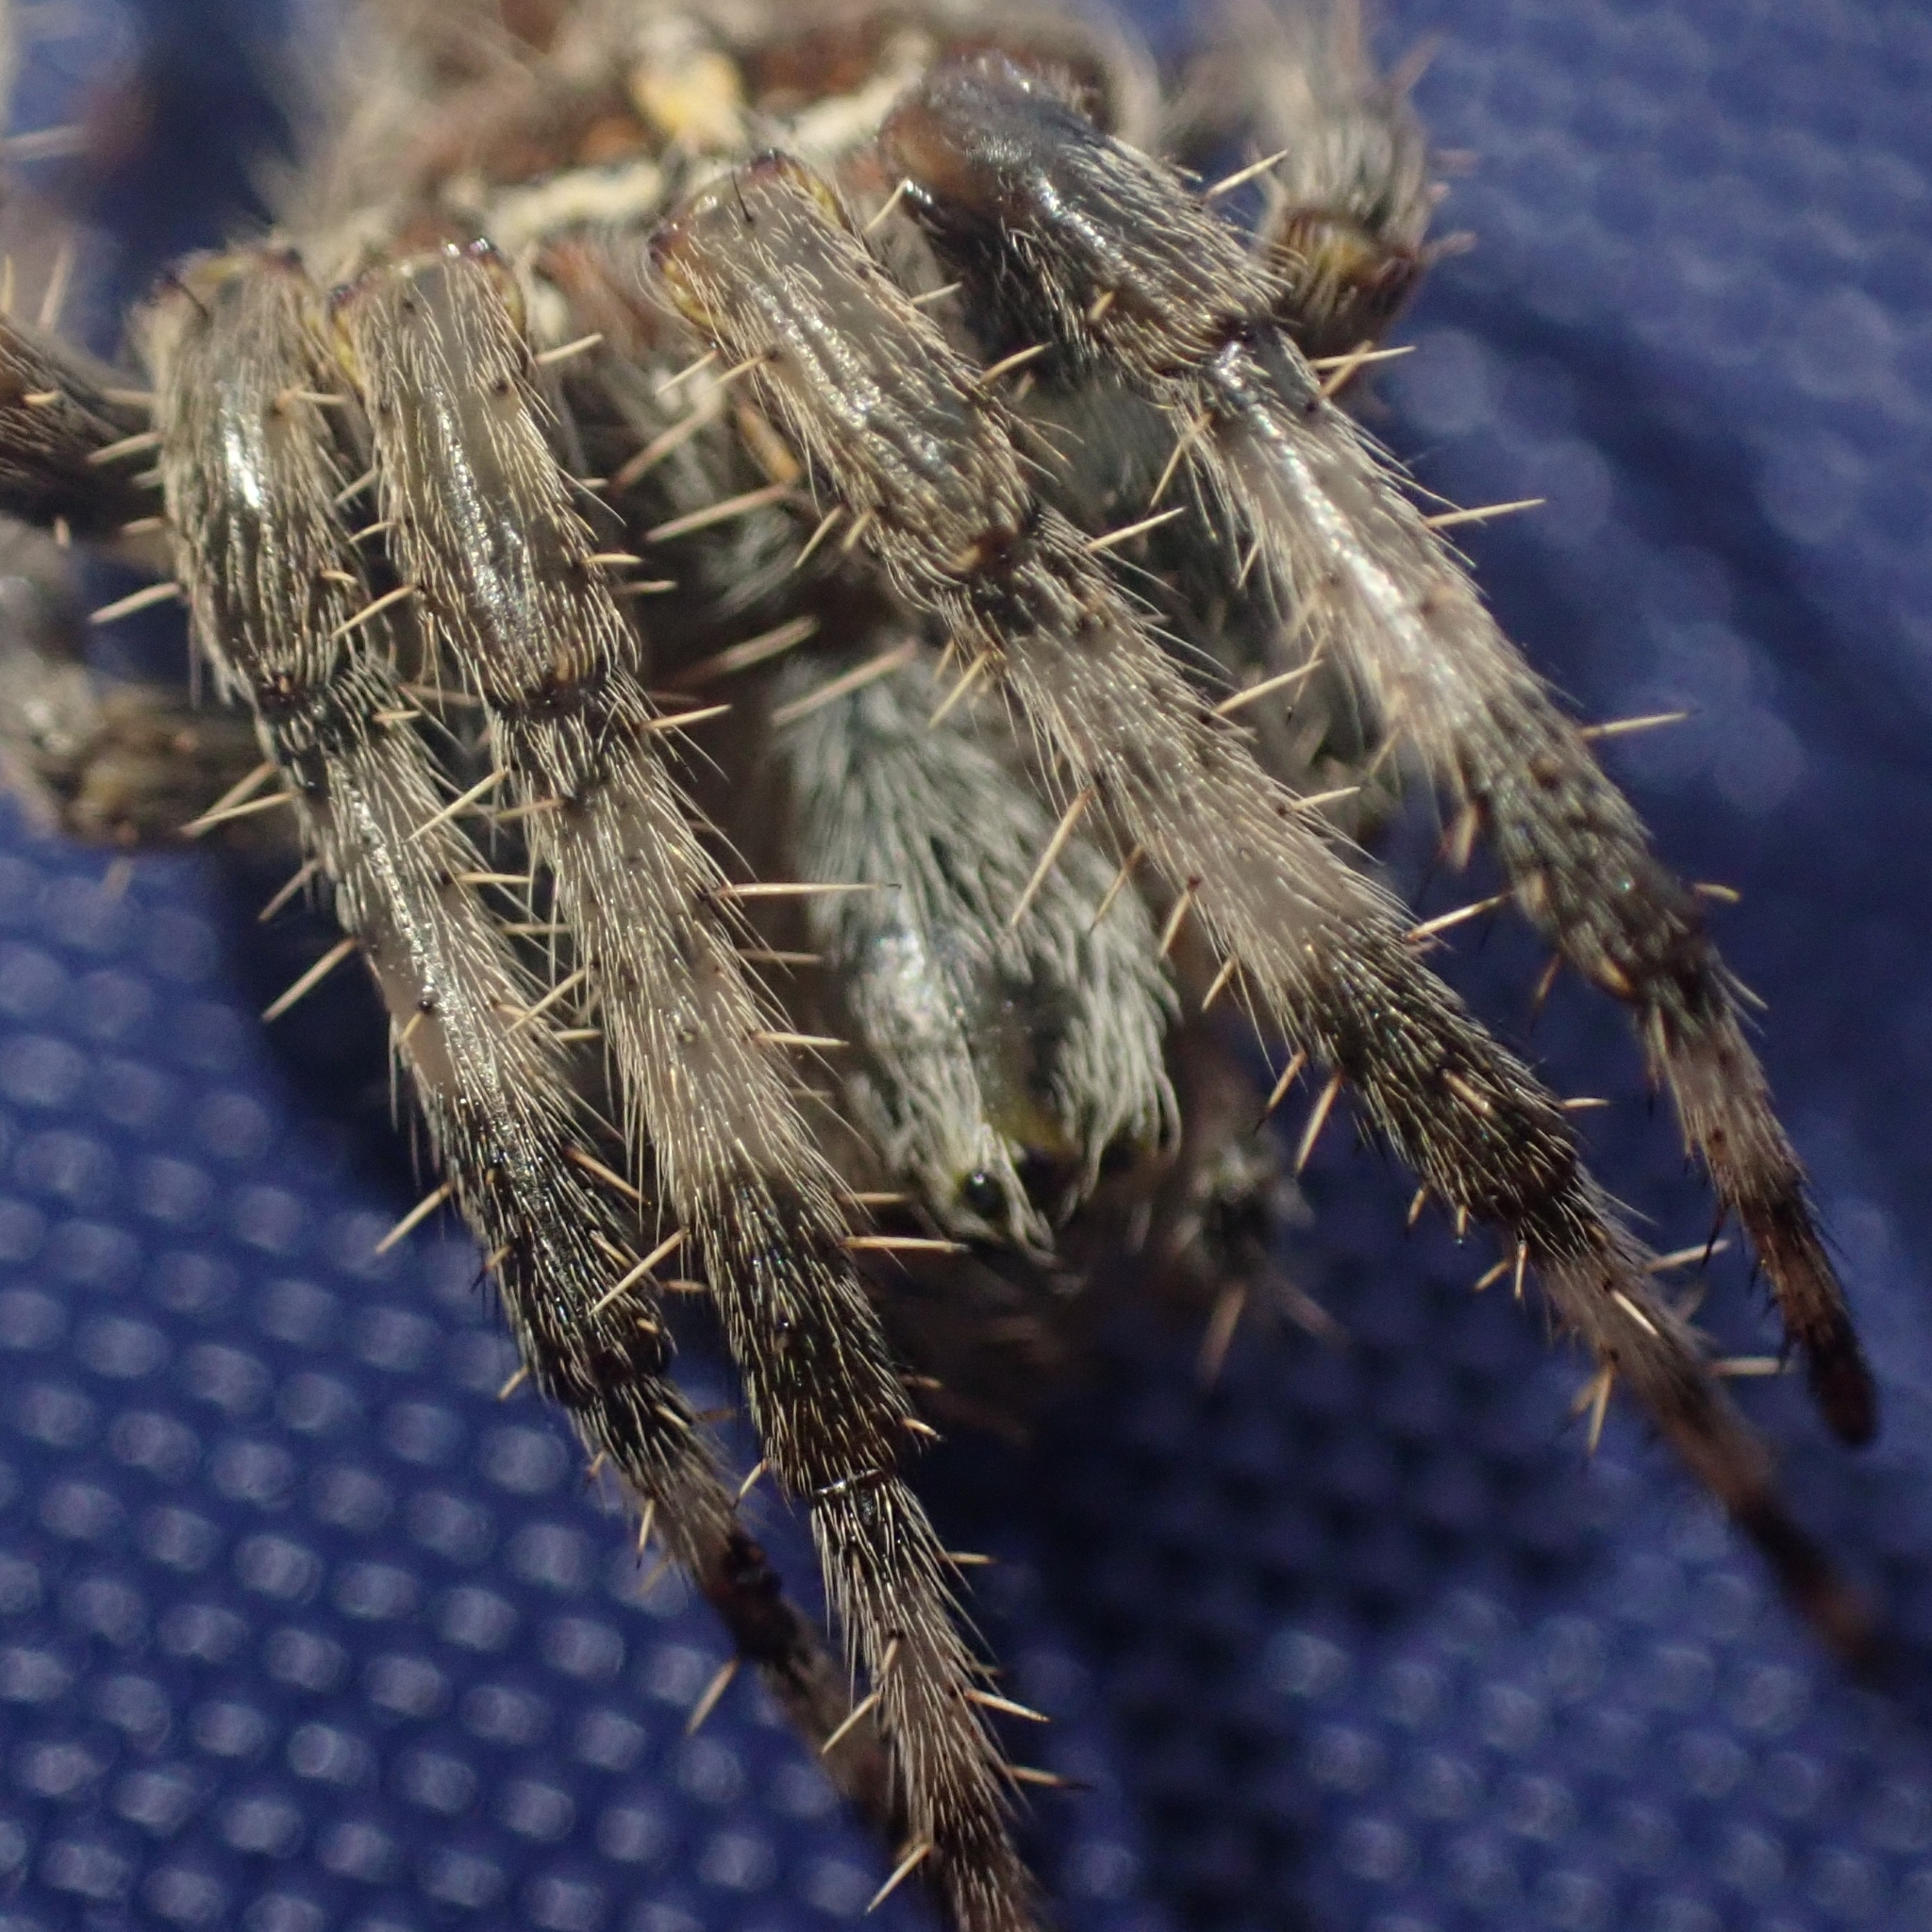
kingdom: Animalia
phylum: Arthropoda
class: Arachnida
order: Araneae
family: Araneidae
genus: Araneus
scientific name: Araneus diadematus
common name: Cross orbweaver
